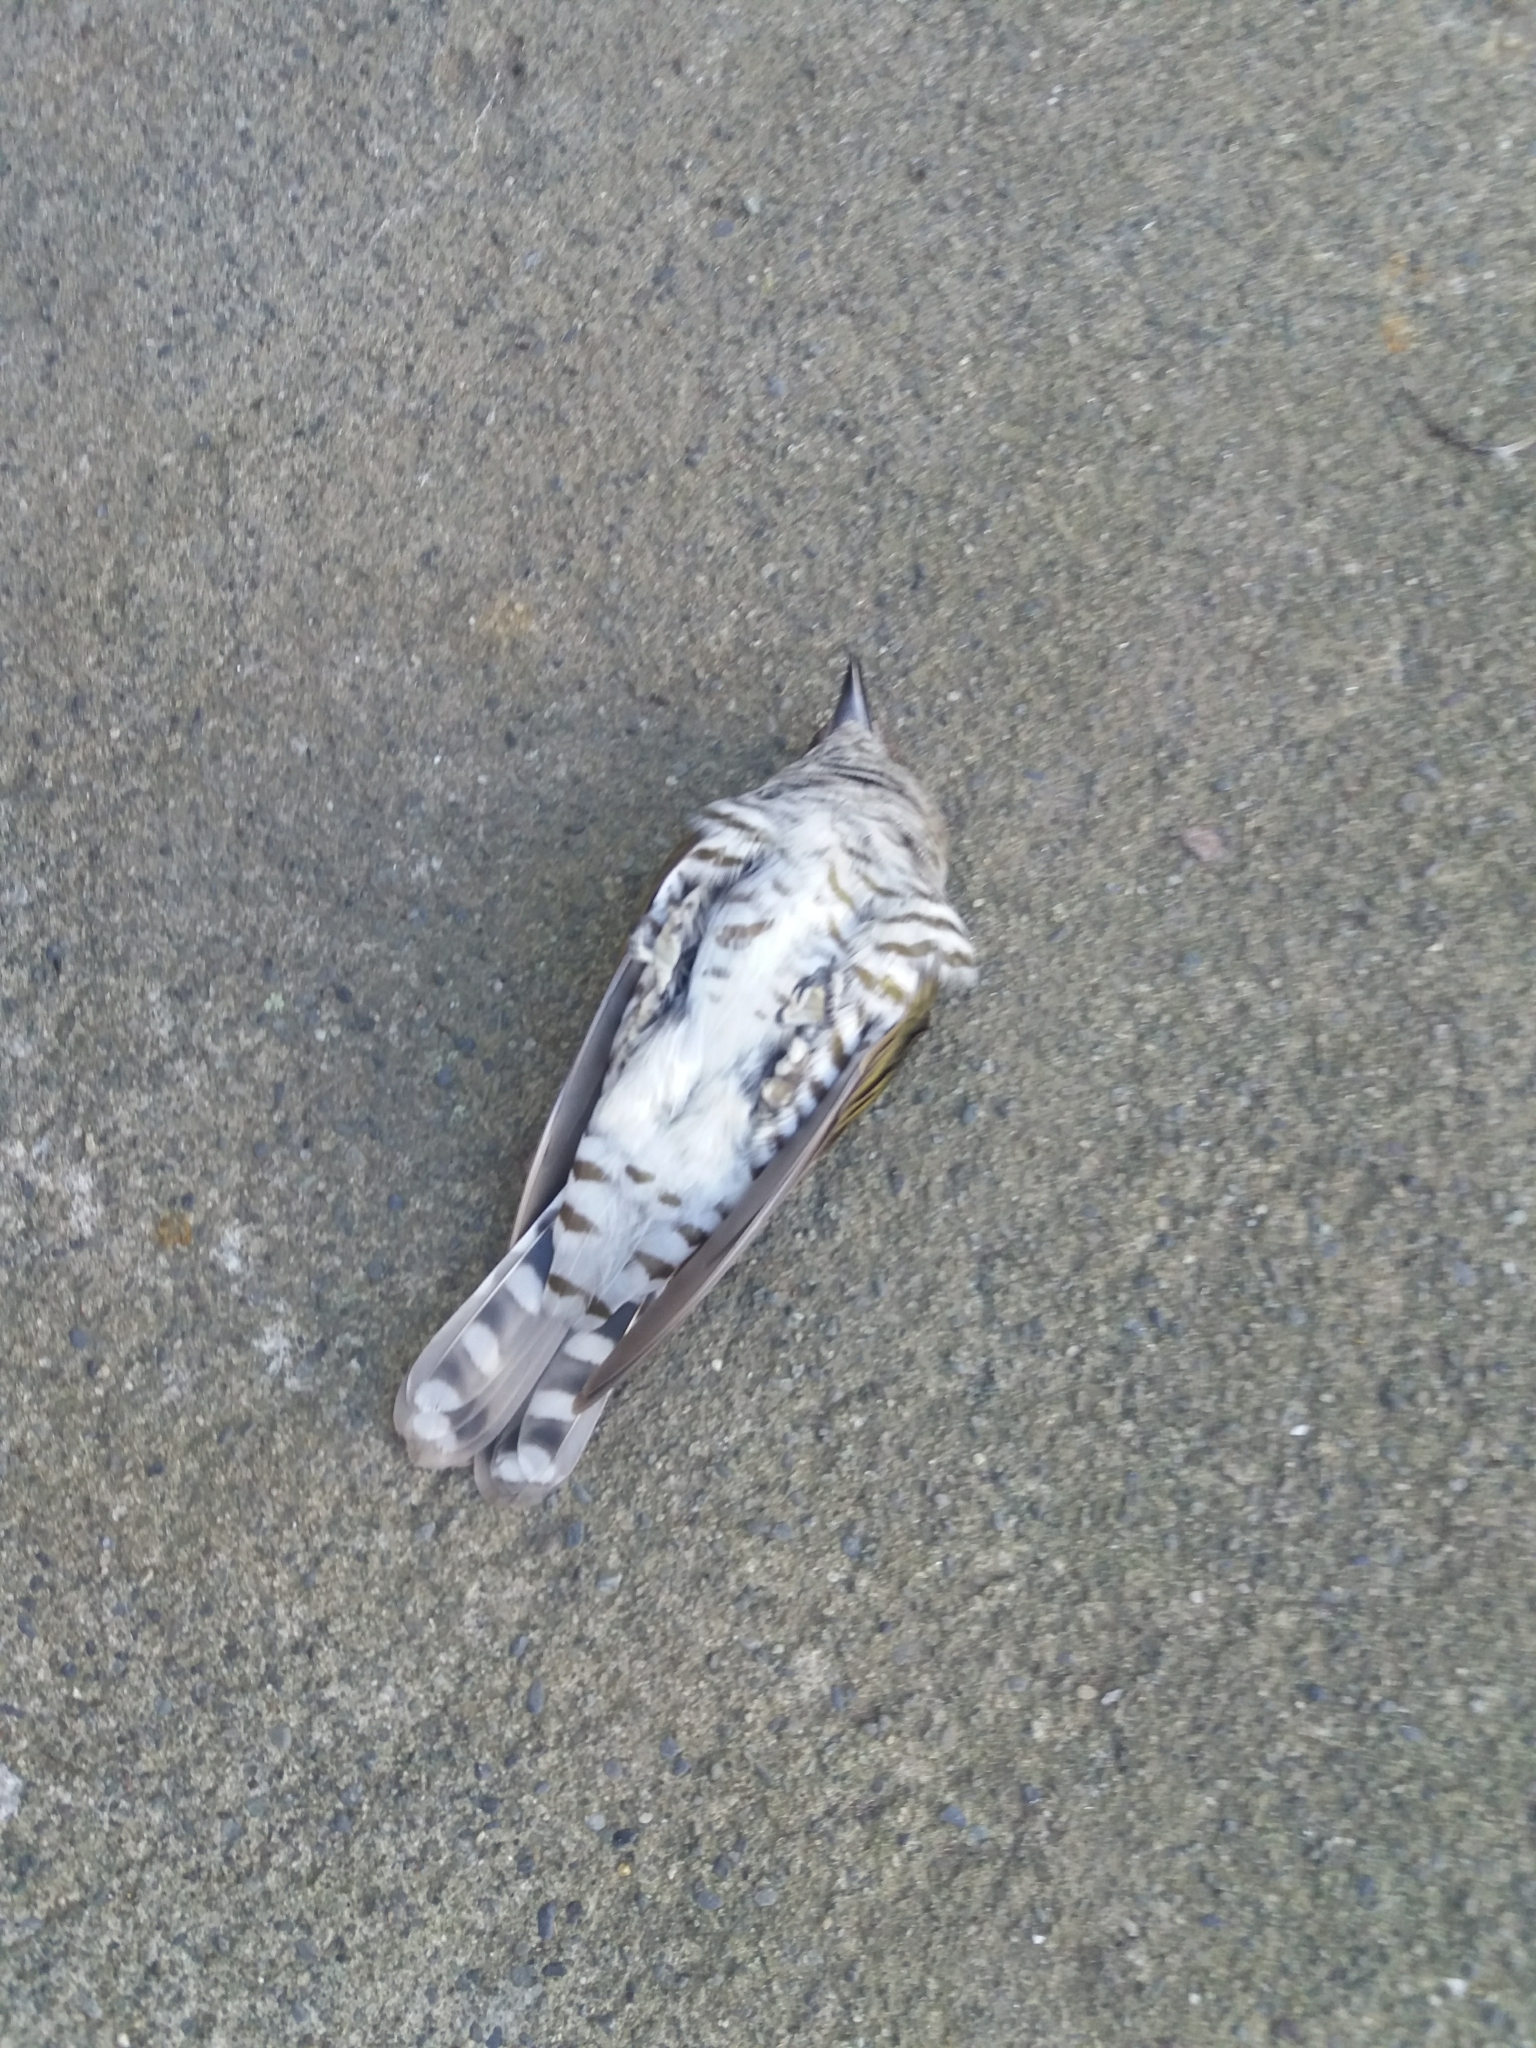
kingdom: Animalia
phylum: Chordata
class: Aves
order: Cuculiformes
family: Cuculidae
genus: Chrysococcyx
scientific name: Chrysococcyx lucidus
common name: Shining bronze cuckoo
